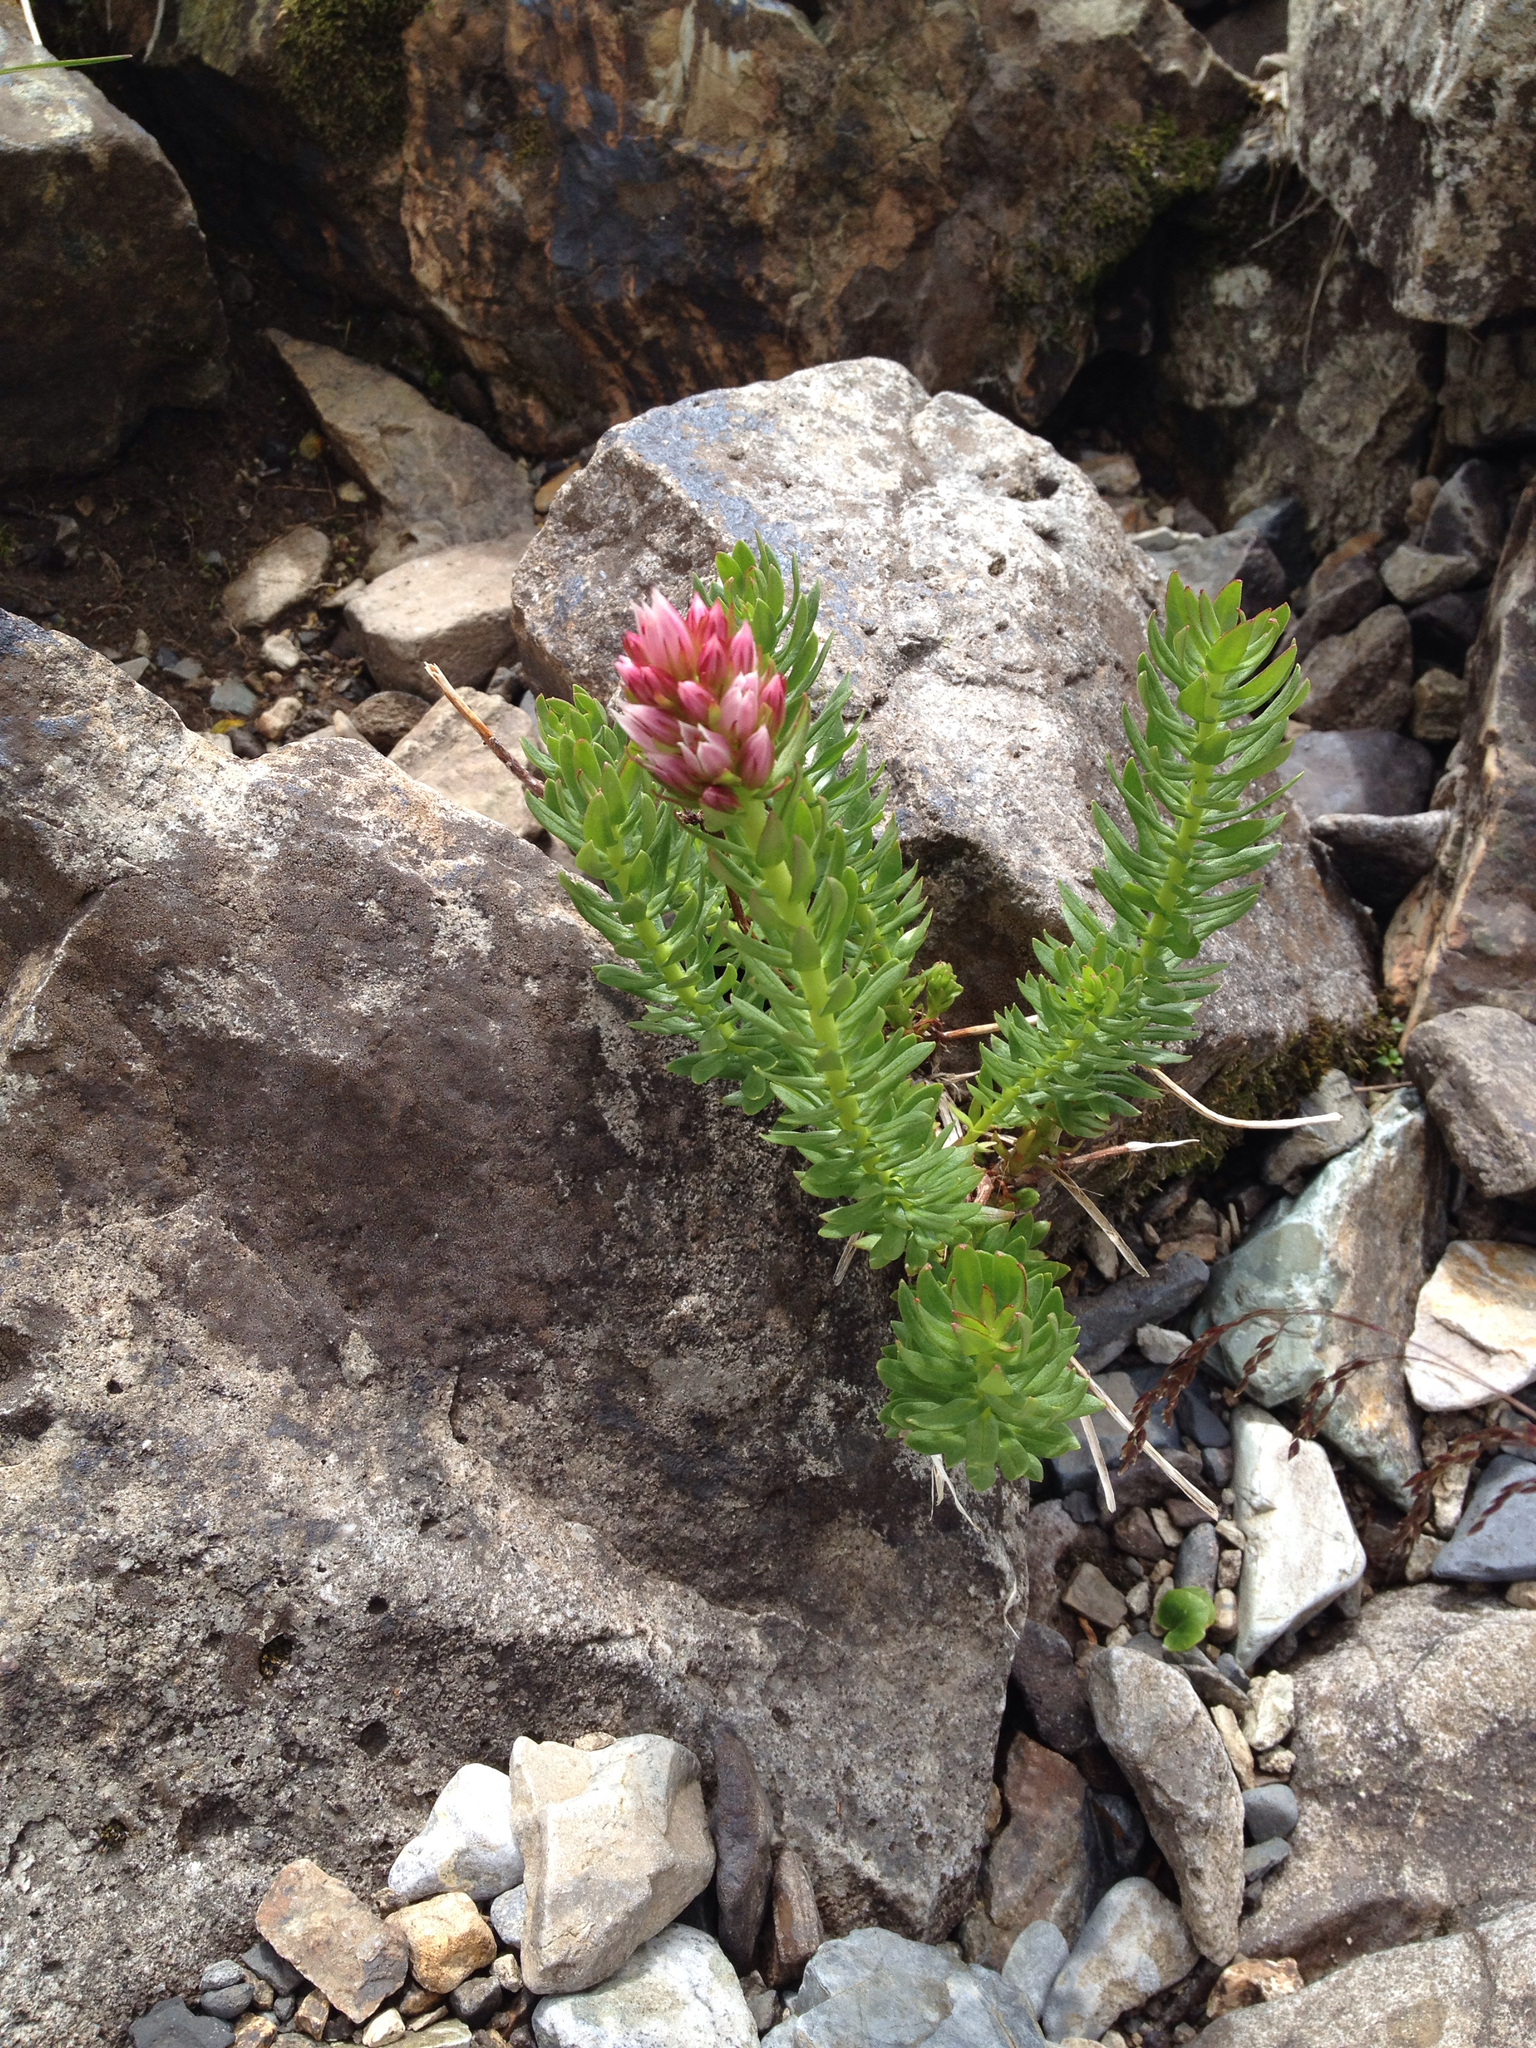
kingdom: Plantae
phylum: Tracheophyta
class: Magnoliopsida
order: Saxifragales
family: Crassulaceae
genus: Rhodiola
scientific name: Rhodiola rhodantha
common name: Red orpine
